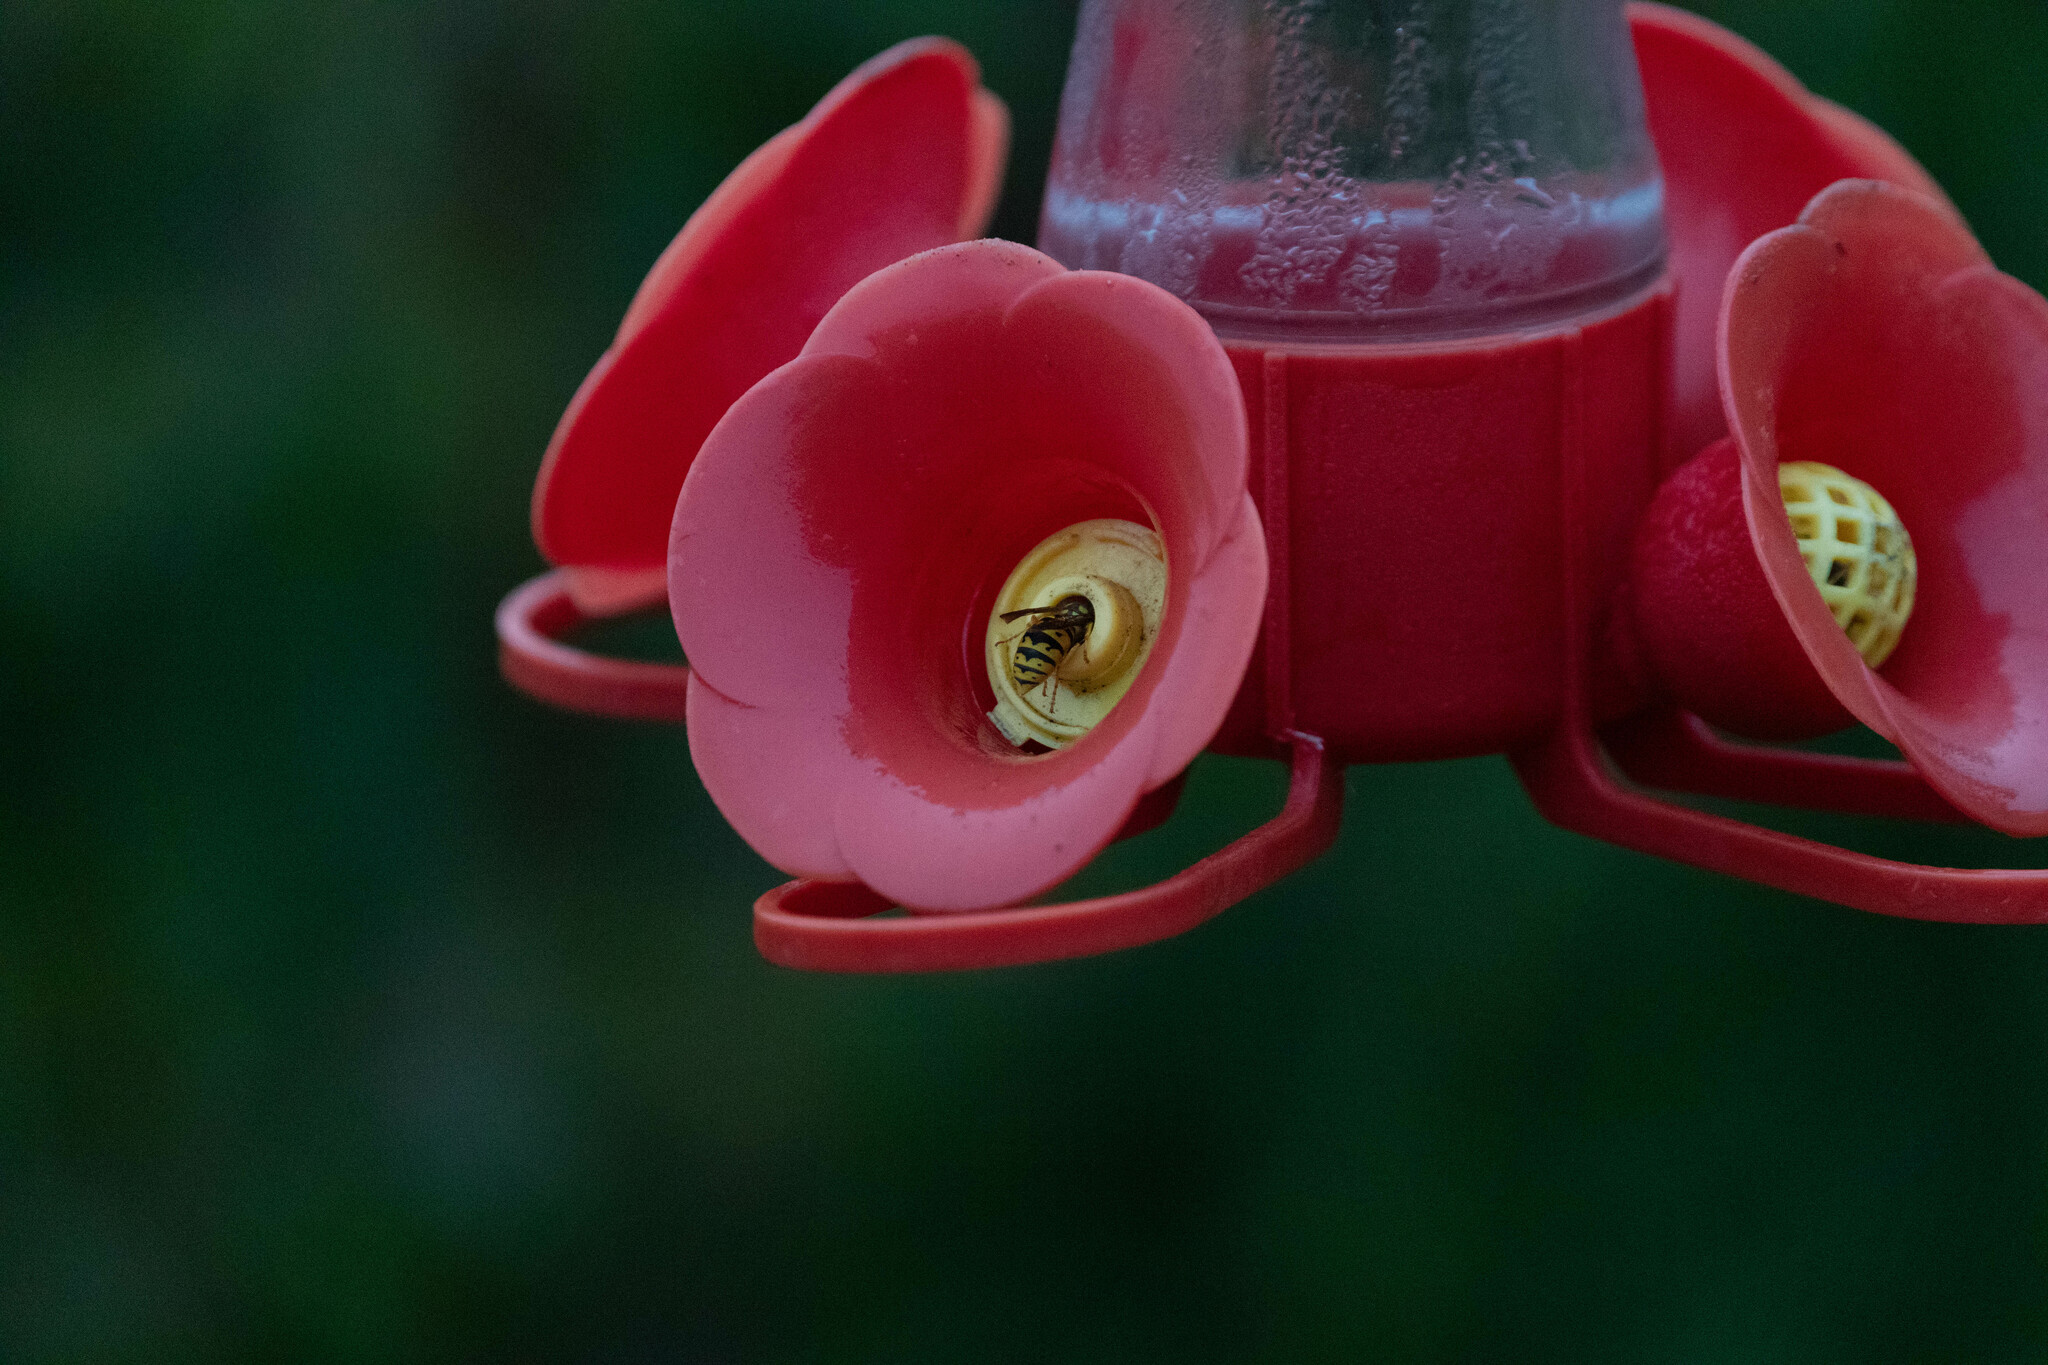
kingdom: Animalia
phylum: Arthropoda
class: Insecta
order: Hymenoptera
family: Vespidae
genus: Vespula
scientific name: Vespula
